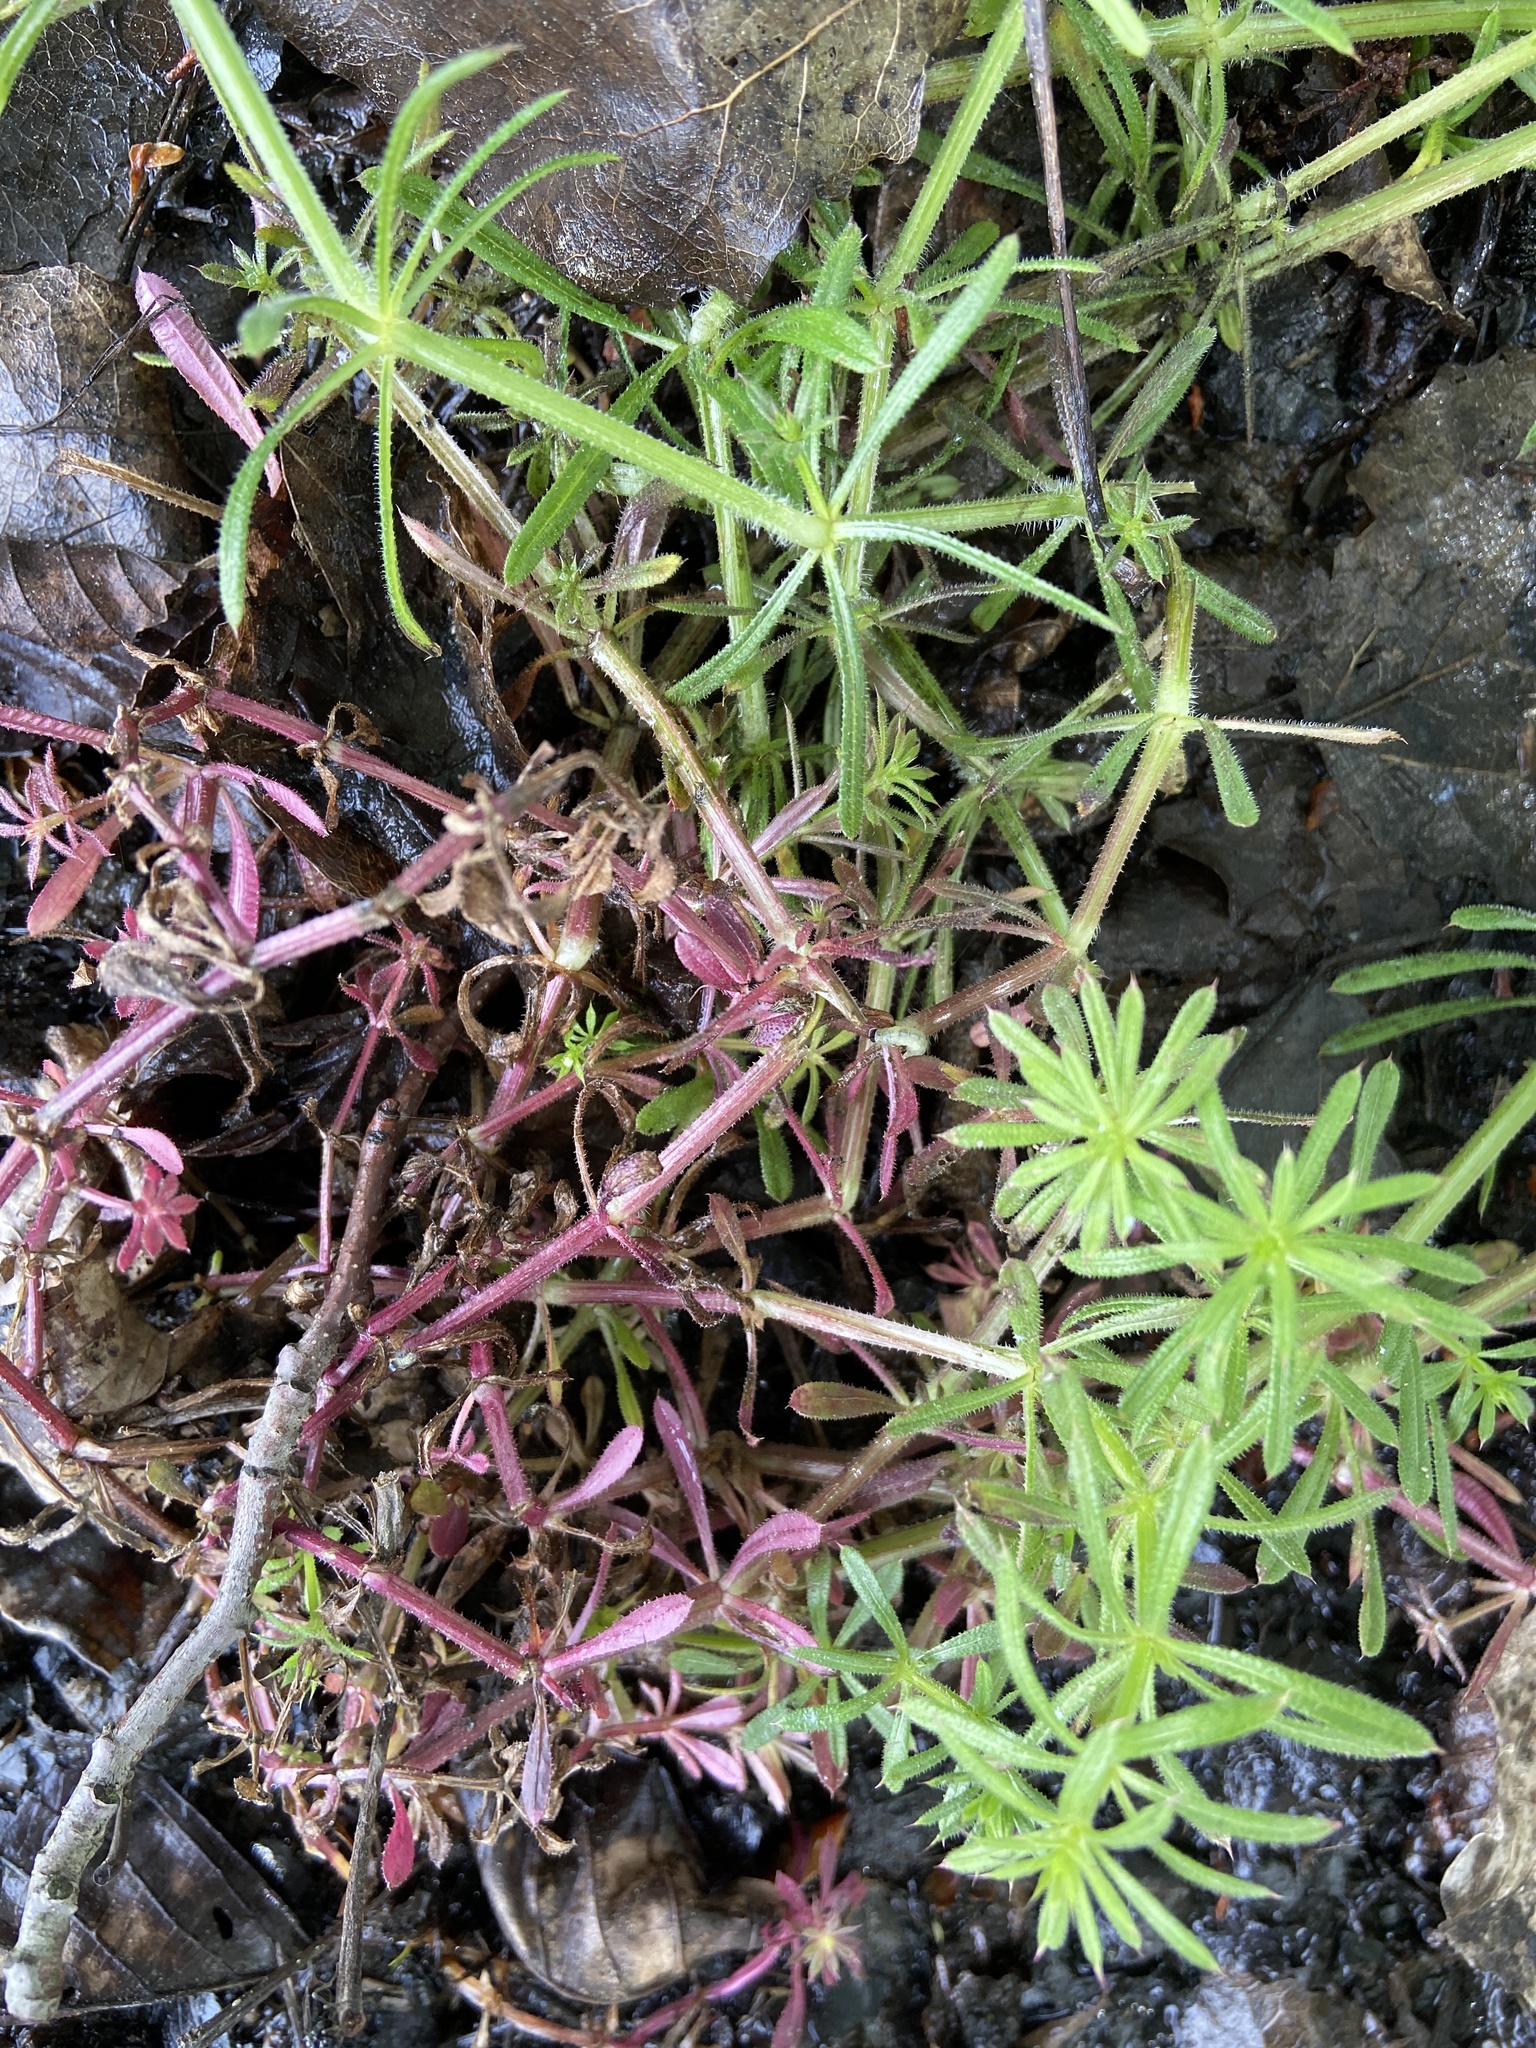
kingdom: Plantae
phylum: Tracheophyta
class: Magnoliopsida
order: Gentianales
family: Rubiaceae
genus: Galium
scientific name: Galium aparine
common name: Cleavers
